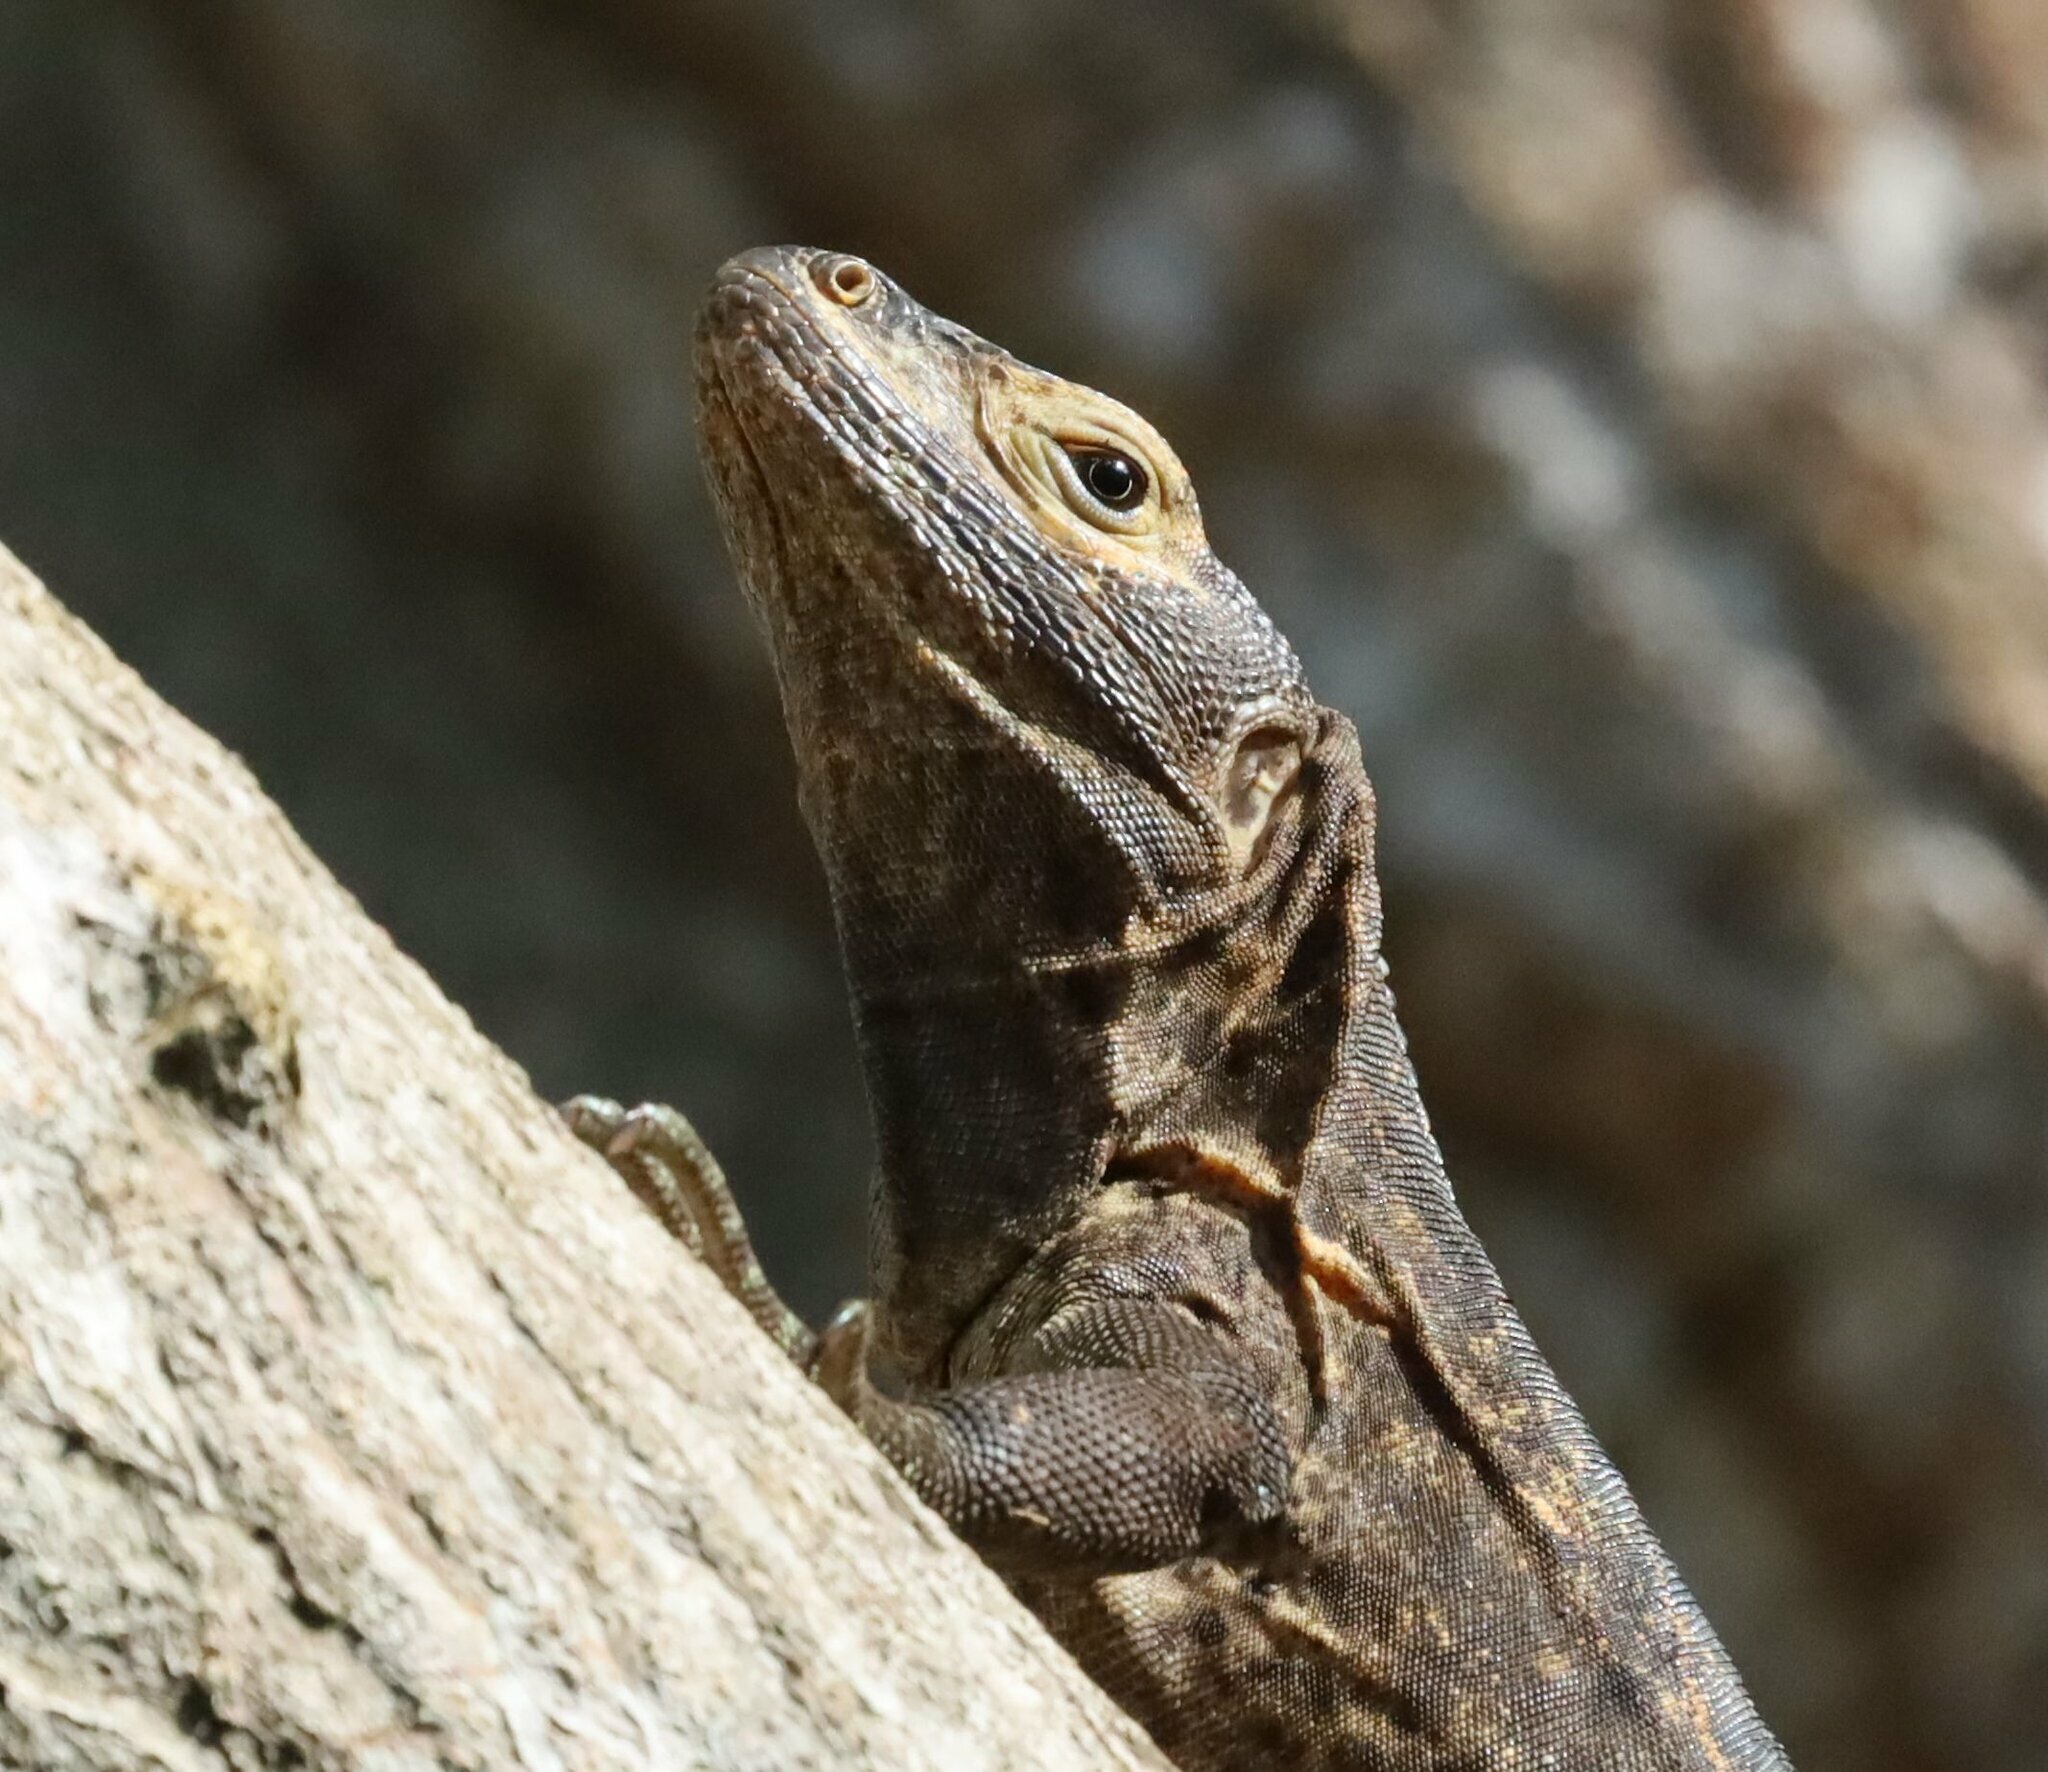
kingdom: Animalia
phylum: Chordata
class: Squamata
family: Iguanidae
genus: Ctenosaura
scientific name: Ctenosaura similis
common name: Black spiny-tailed iguana
